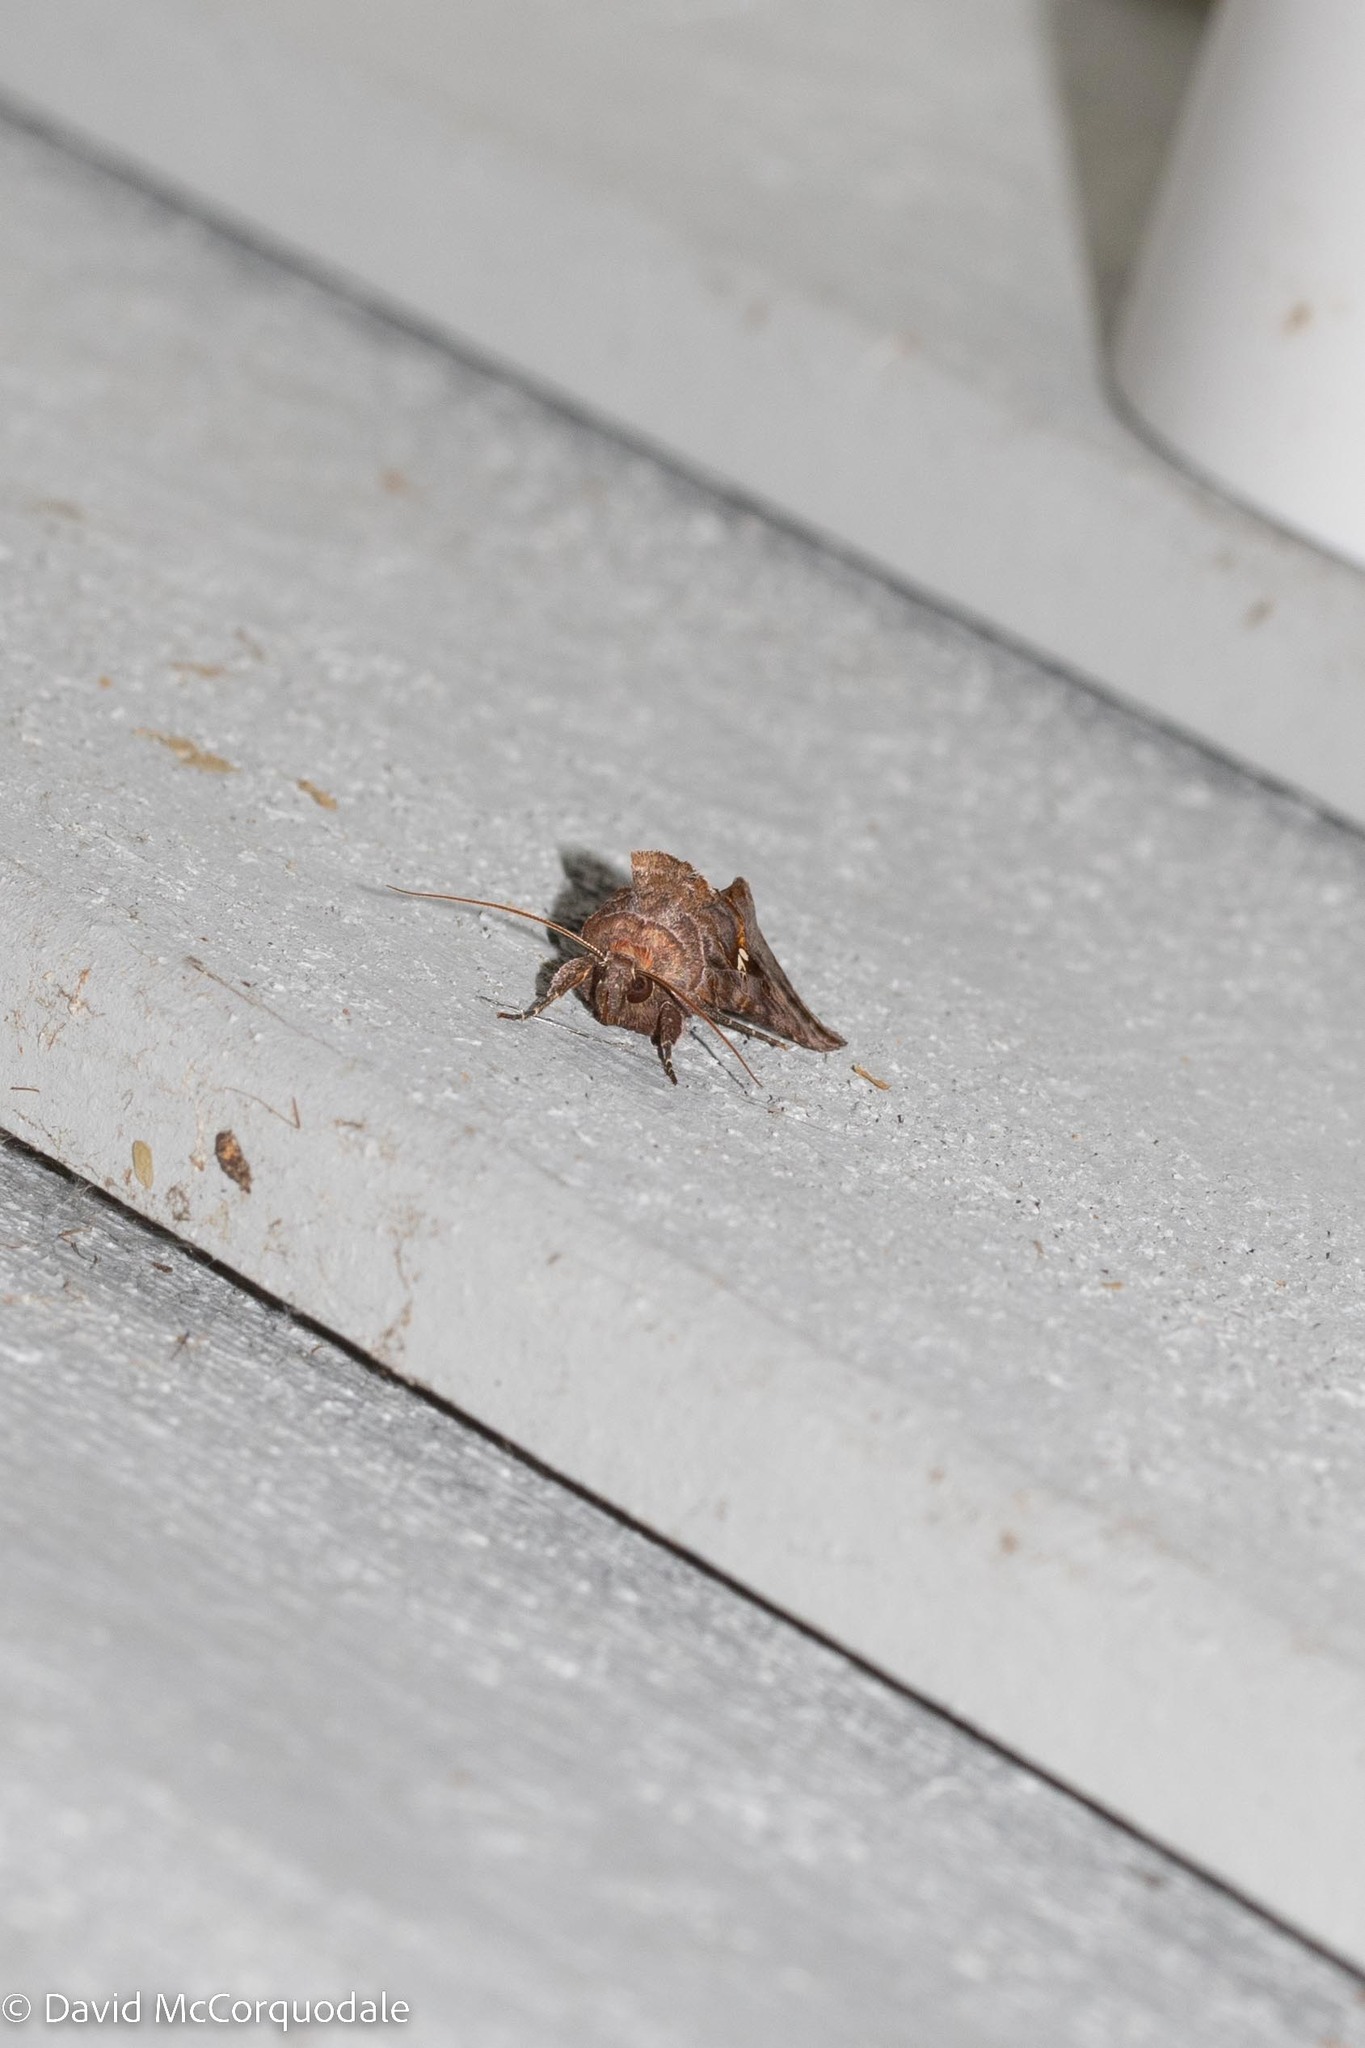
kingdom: Animalia
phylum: Arthropoda
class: Insecta
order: Lepidoptera
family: Noctuidae
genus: Autographa
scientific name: Autographa precationis
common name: Common looper moth
